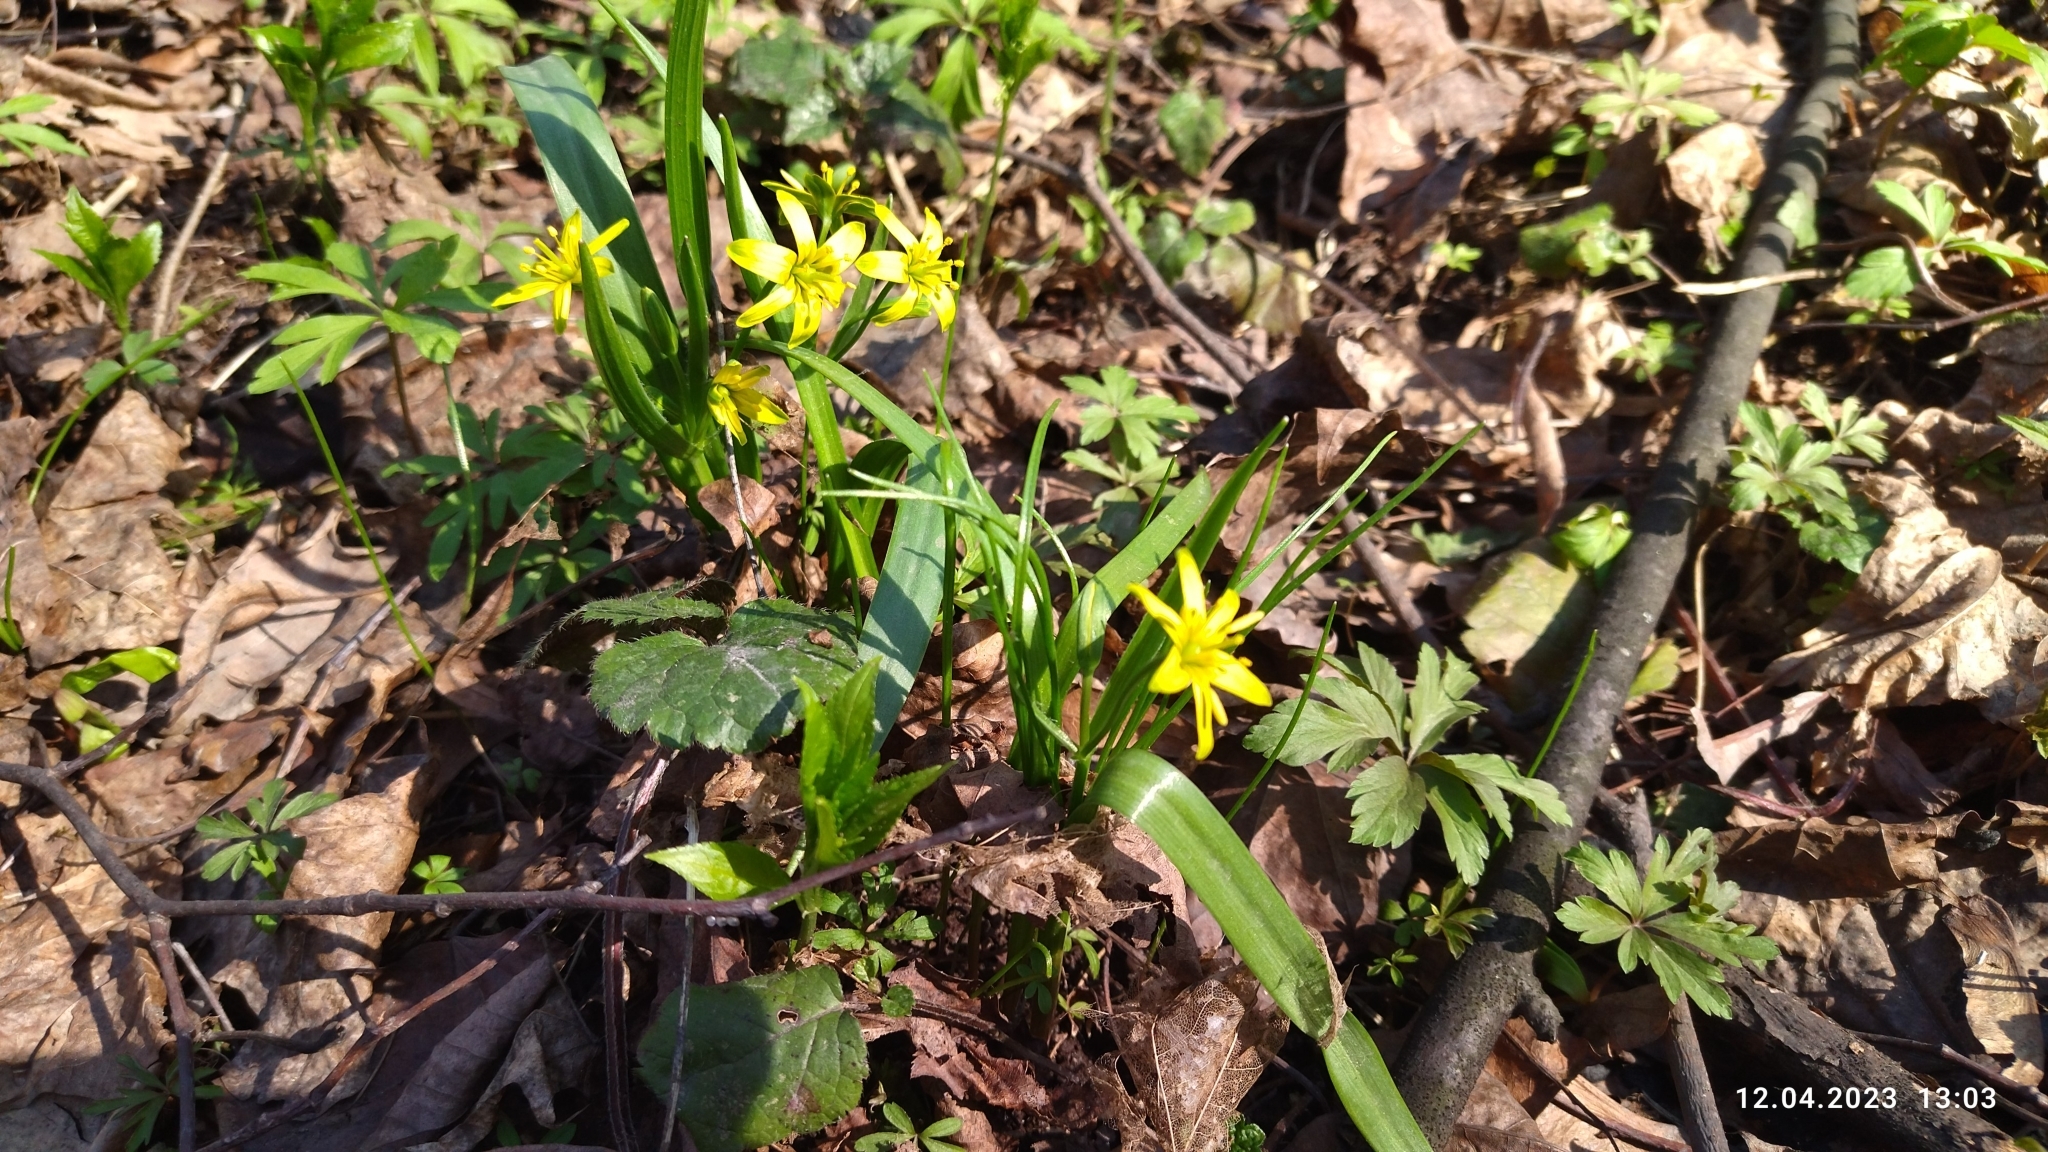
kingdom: Plantae
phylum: Tracheophyta
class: Liliopsida
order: Liliales
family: Liliaceae
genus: Gagea
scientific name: Gagea lutea
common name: Yellow star-of-bethlehem
